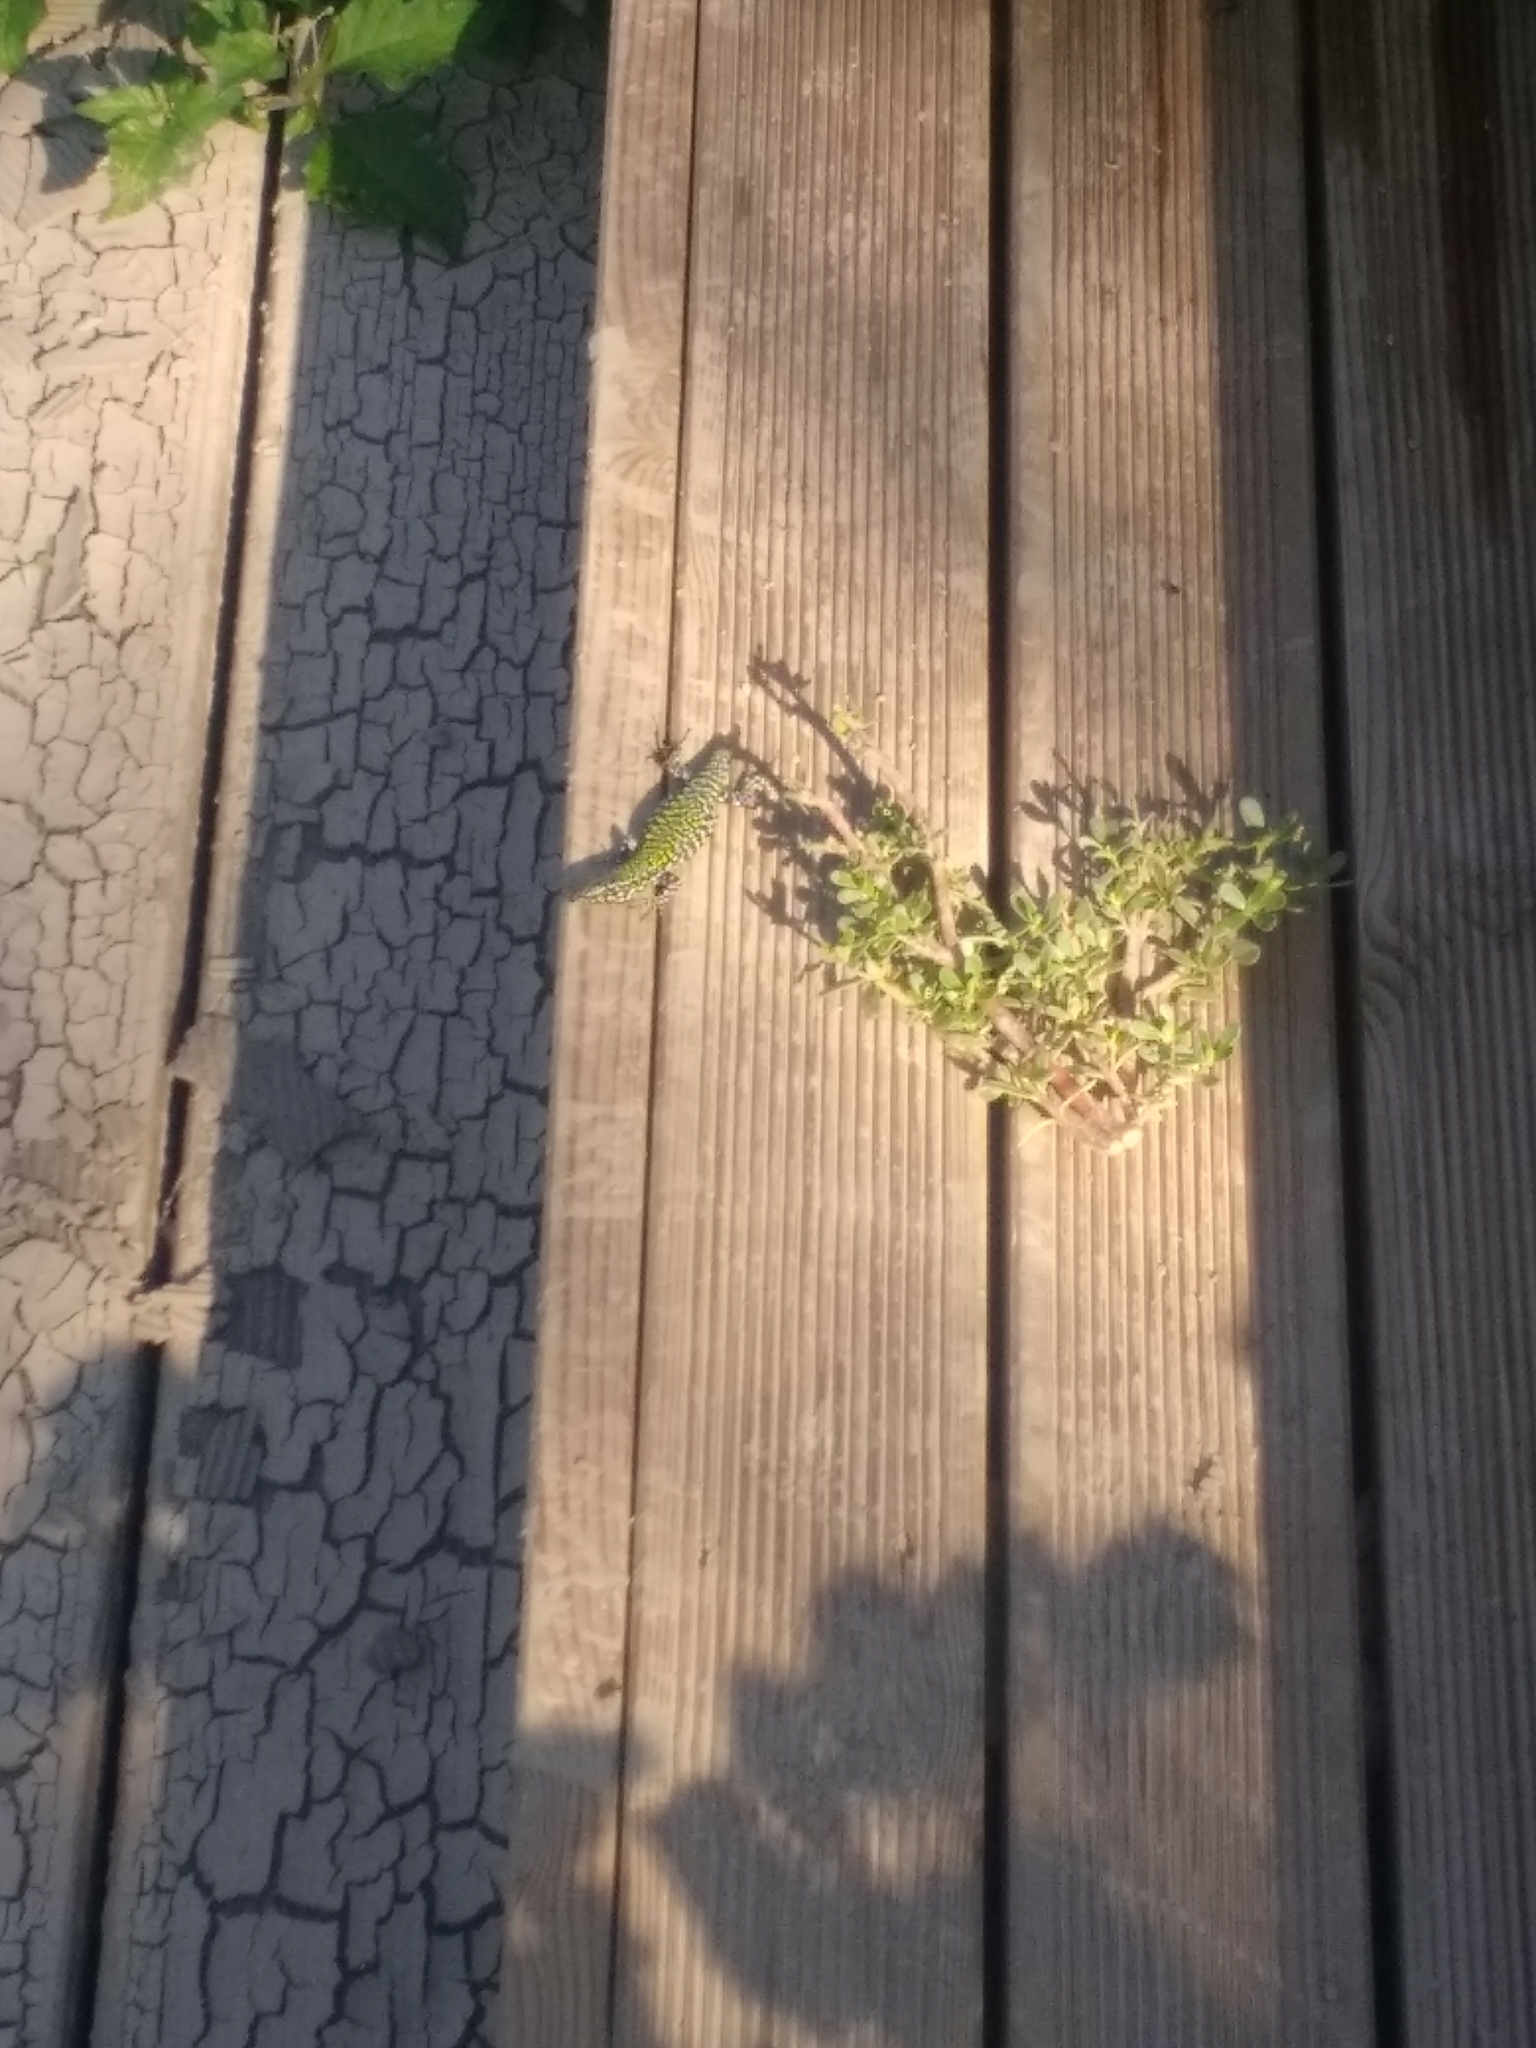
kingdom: Animalia
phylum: Chordata
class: Squamata
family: Lacertidae
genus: Podarcis
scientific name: Podarcis muralis
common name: Common wall lizard
